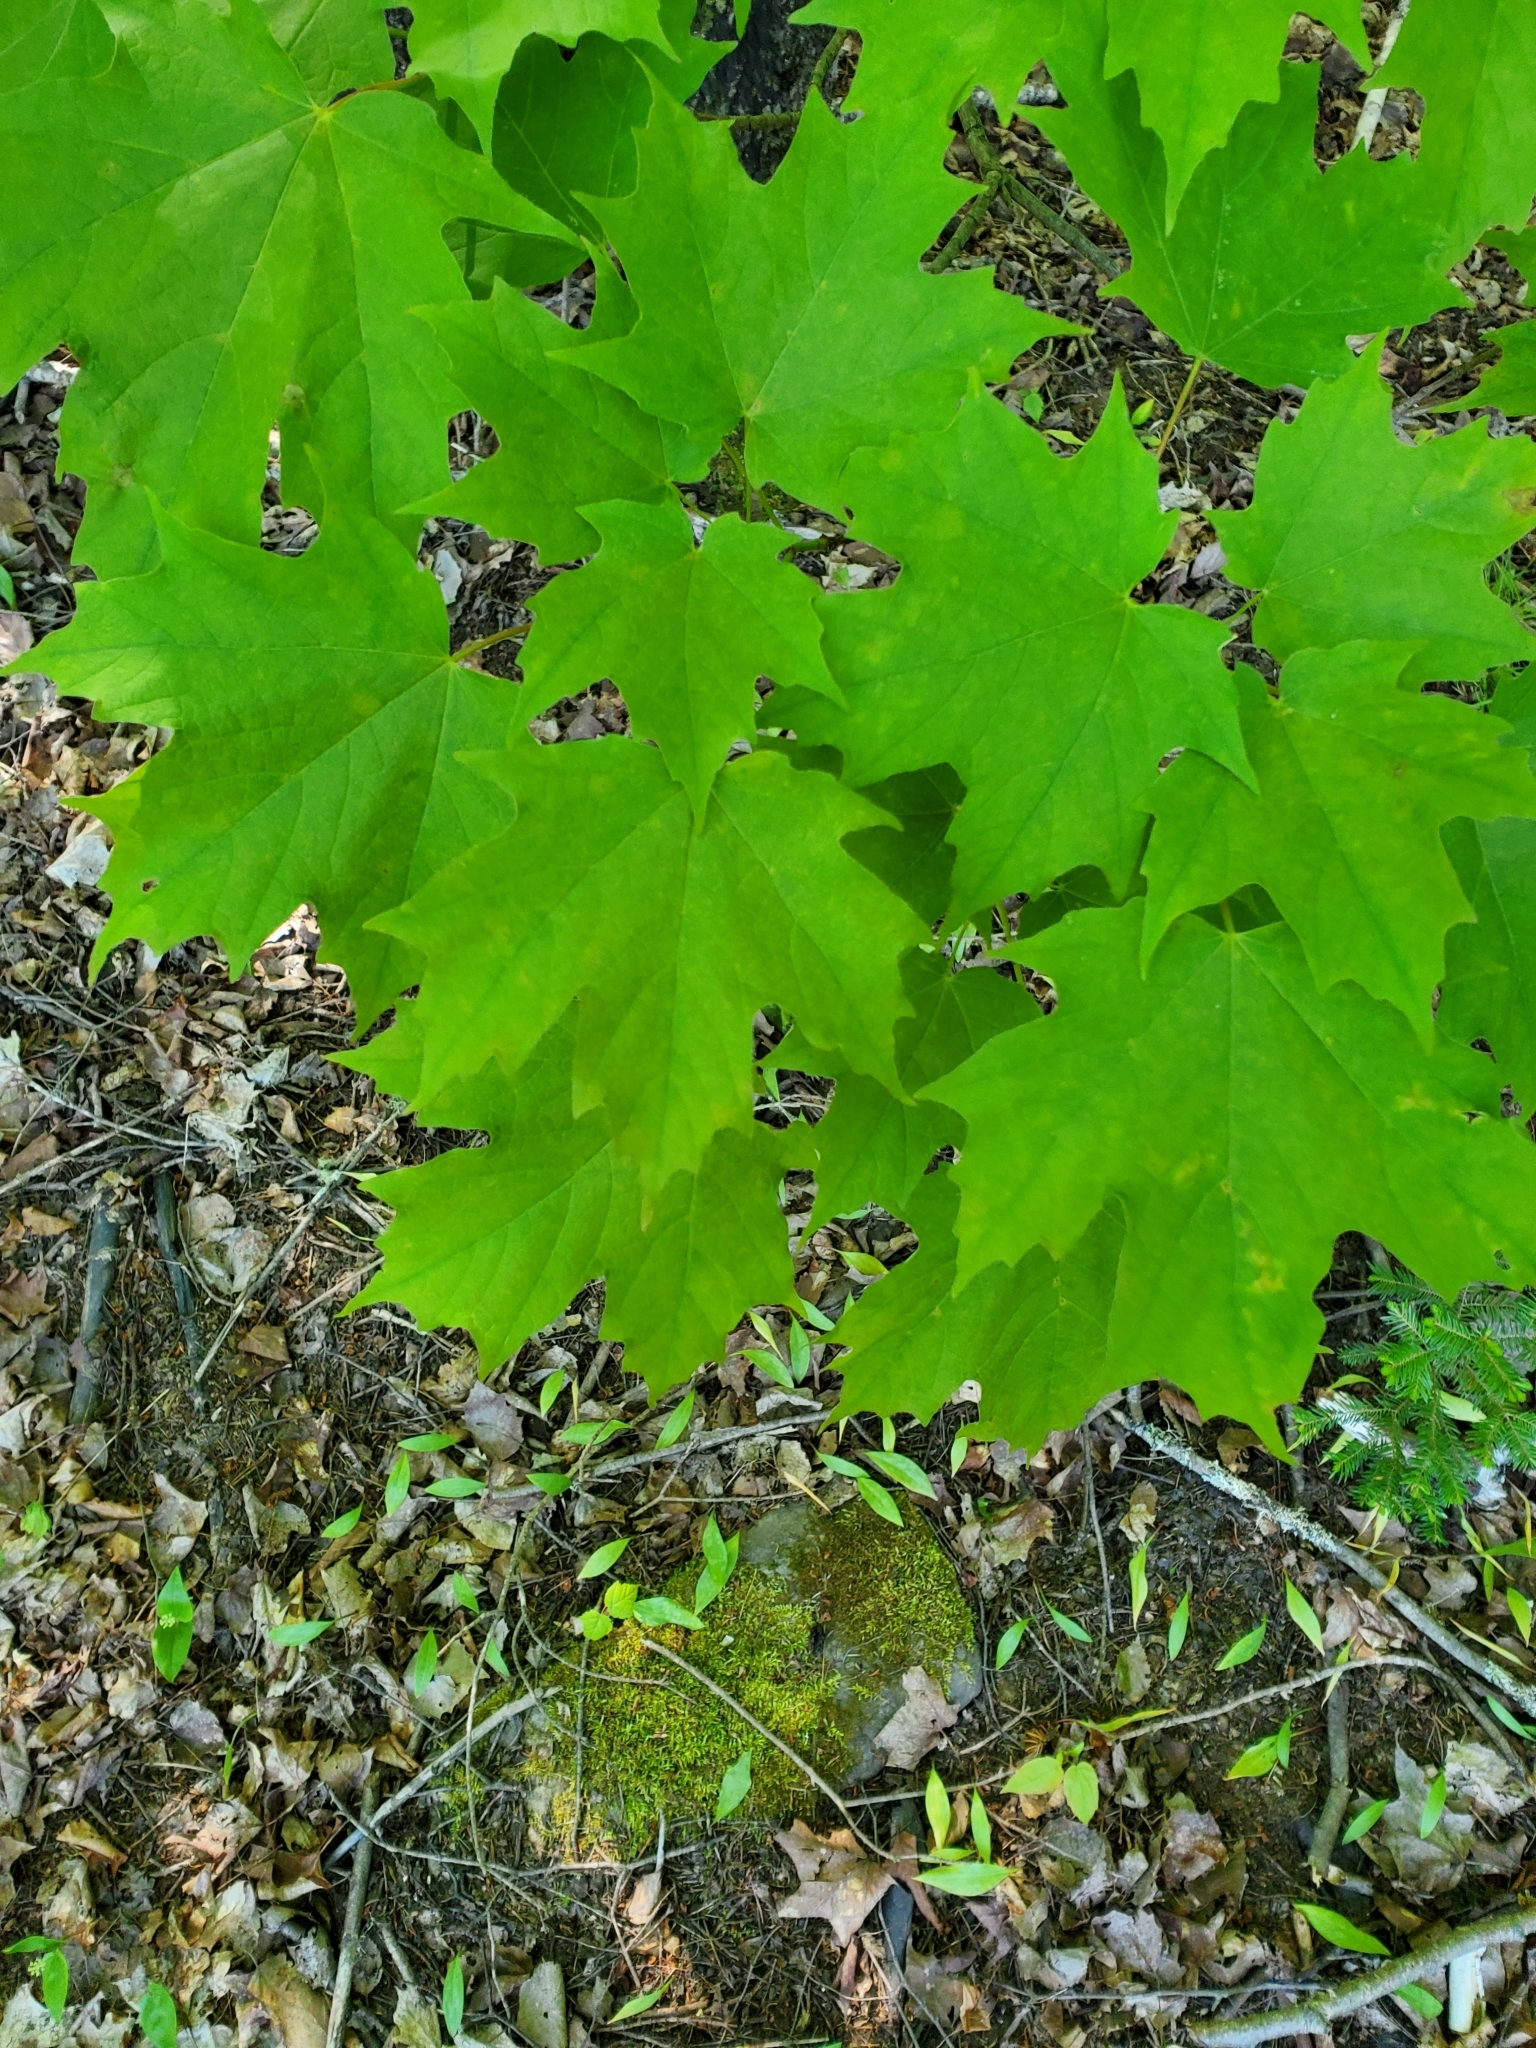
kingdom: Plantae
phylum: Tracheophyta
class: Magnoliopsida
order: Sapindales
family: Sapindaceae
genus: Acer
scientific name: Acer saccharum
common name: Sugar maple
